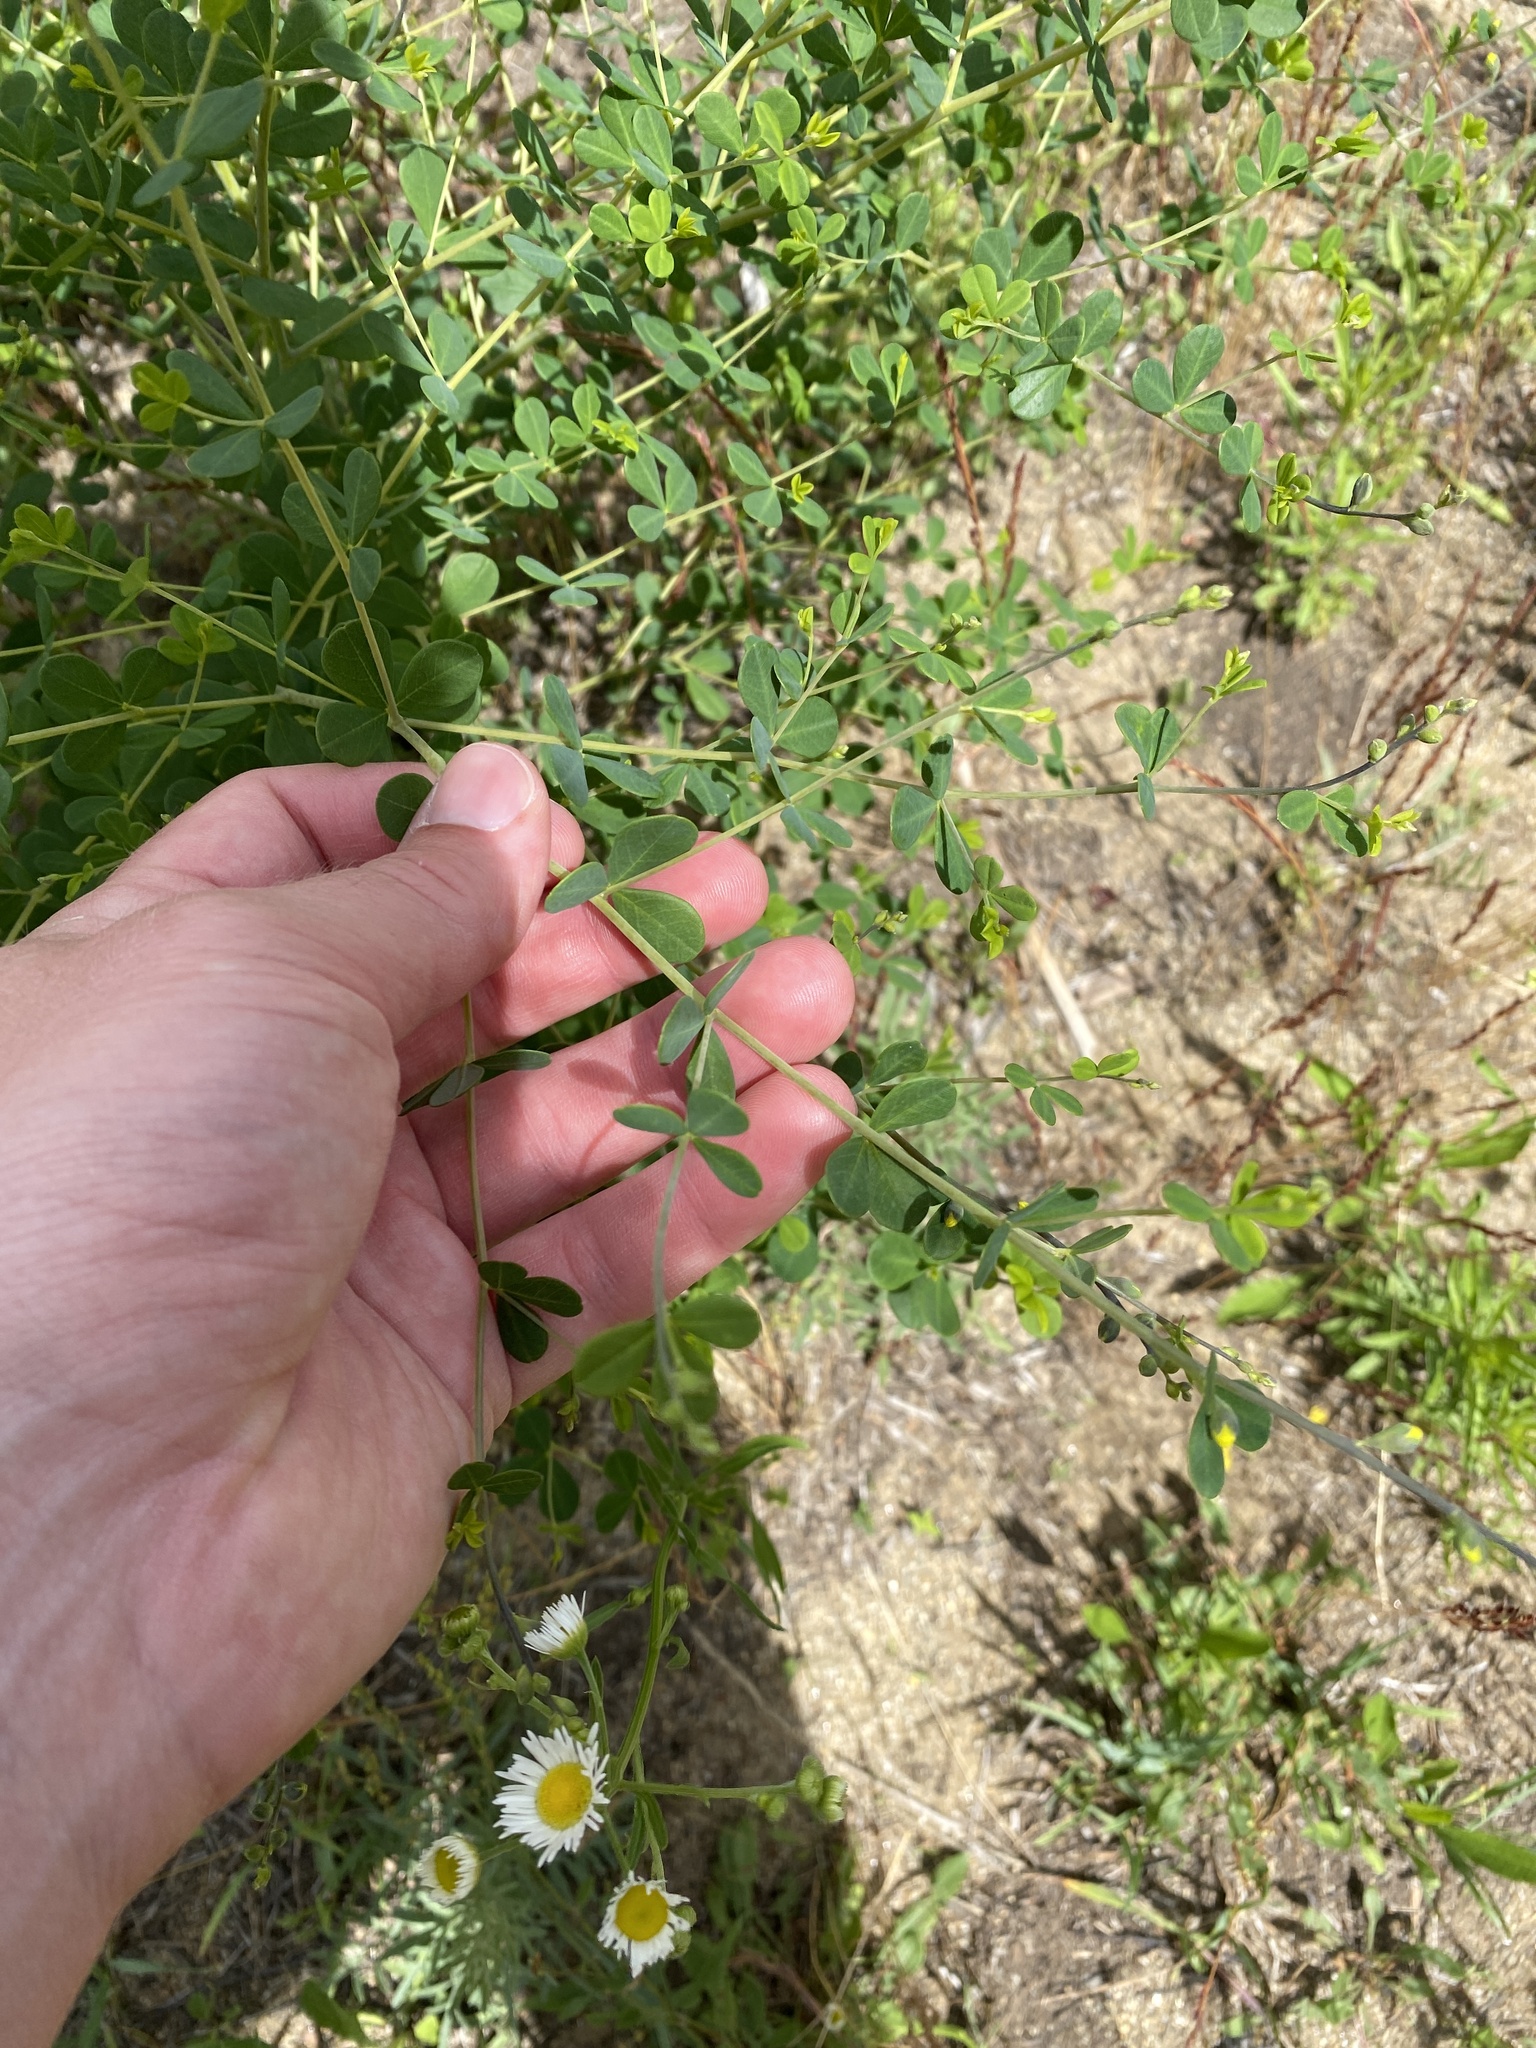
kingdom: Plantae
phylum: Tracheophyta
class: Magnoliopsida
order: Fabales
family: Fabaceae
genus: Baptisia
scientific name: Baptisia tinctoria
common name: Wild indigo
